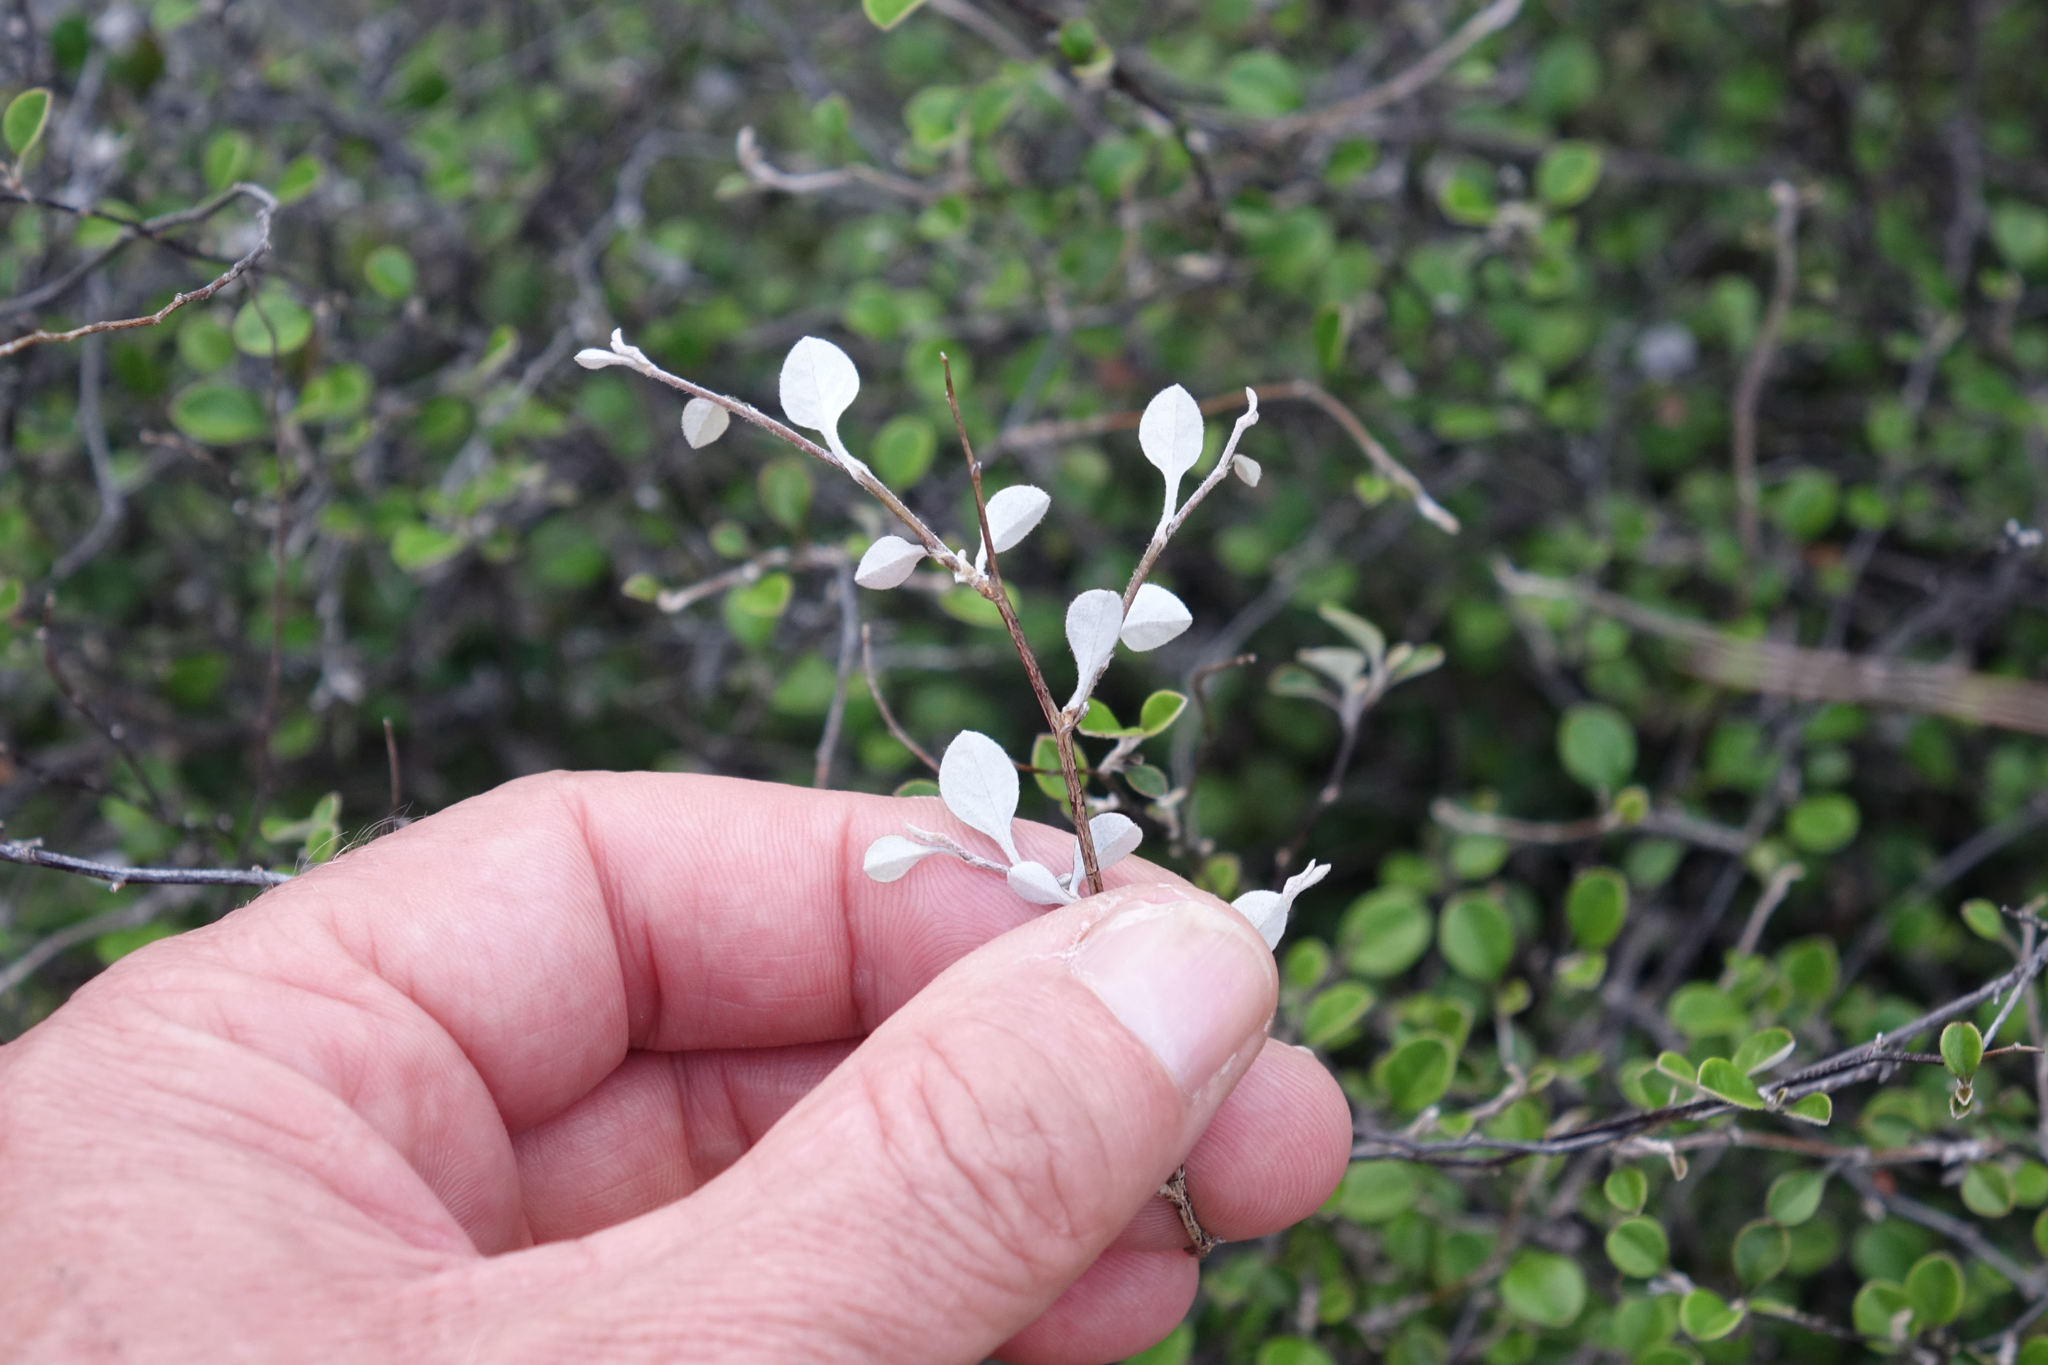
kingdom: Plantae
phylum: Tracheophyta
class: Magnoliopsida
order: Asterales
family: Asteraceae
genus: Ozothamnus
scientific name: Ozothamnus glomeratus
